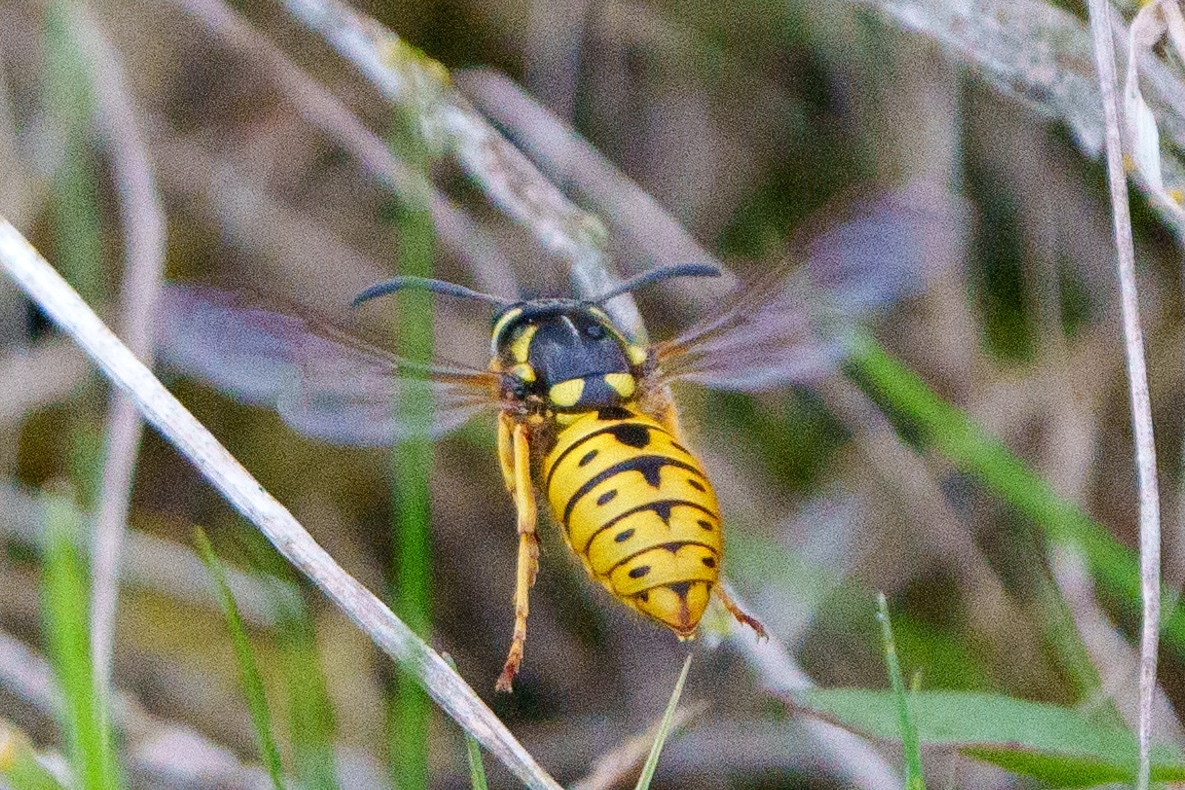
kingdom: Animalia
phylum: Arthropoda
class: Insecta
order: Hymenoptera
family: Vespidae
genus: Vespula
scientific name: Vespula germanica
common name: German wasp
